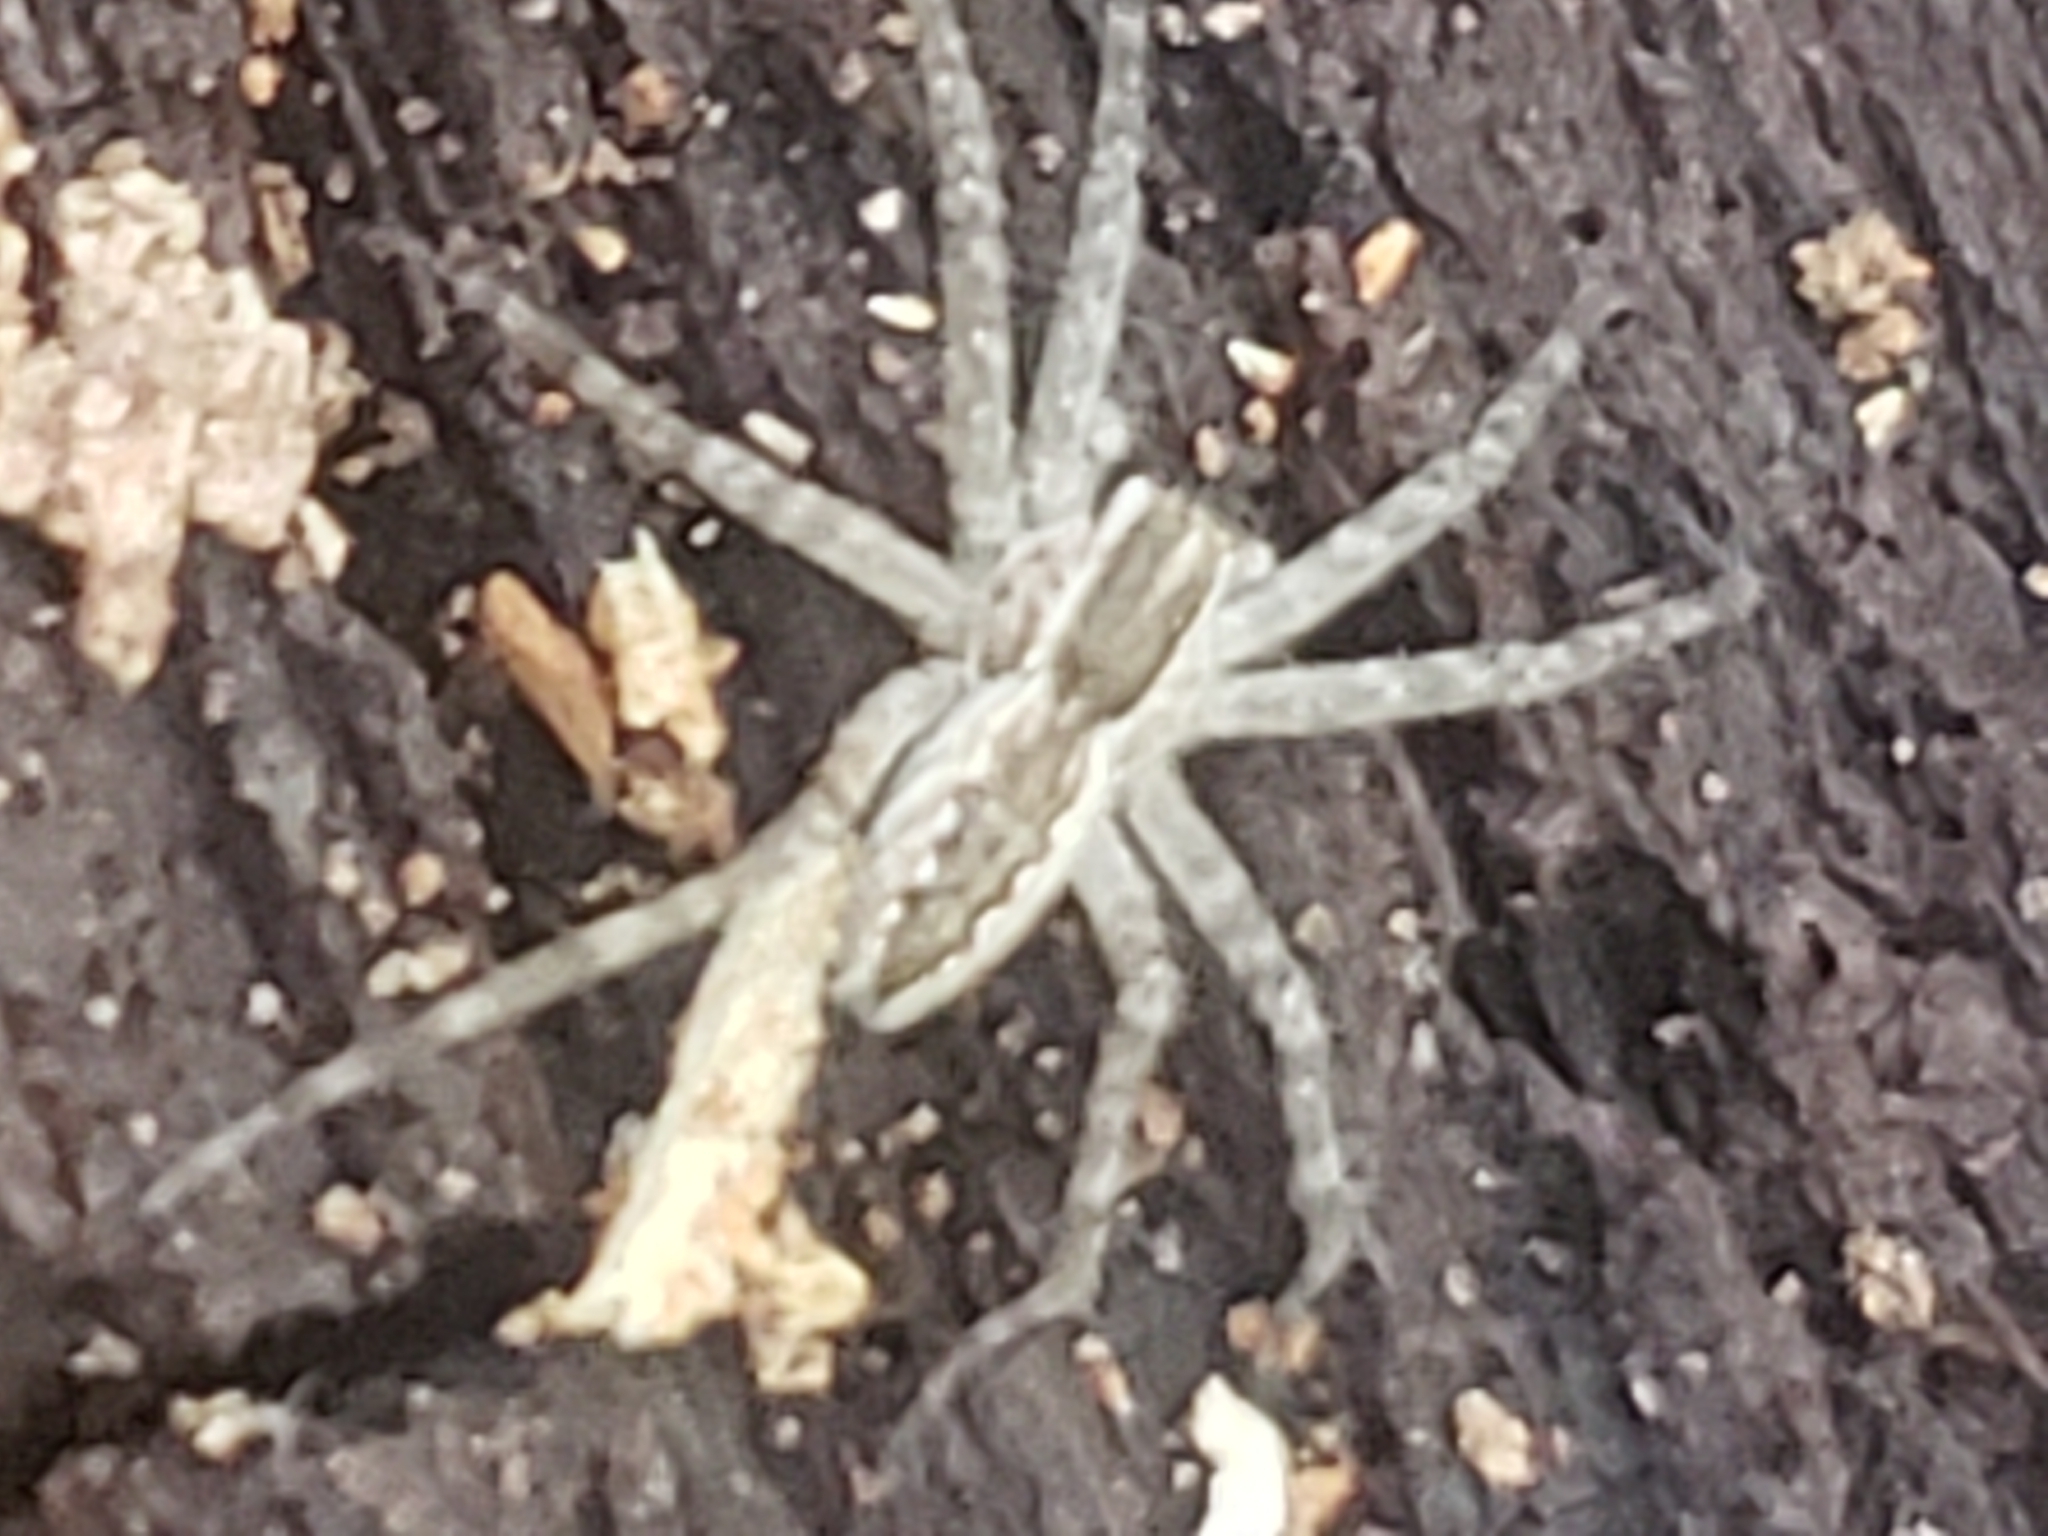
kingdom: Animalia
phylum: Arthropoda
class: Arachnida
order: Araneae
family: Pisauridae
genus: Pisaurina
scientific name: Pisaurina mira
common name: American nursery web spider
